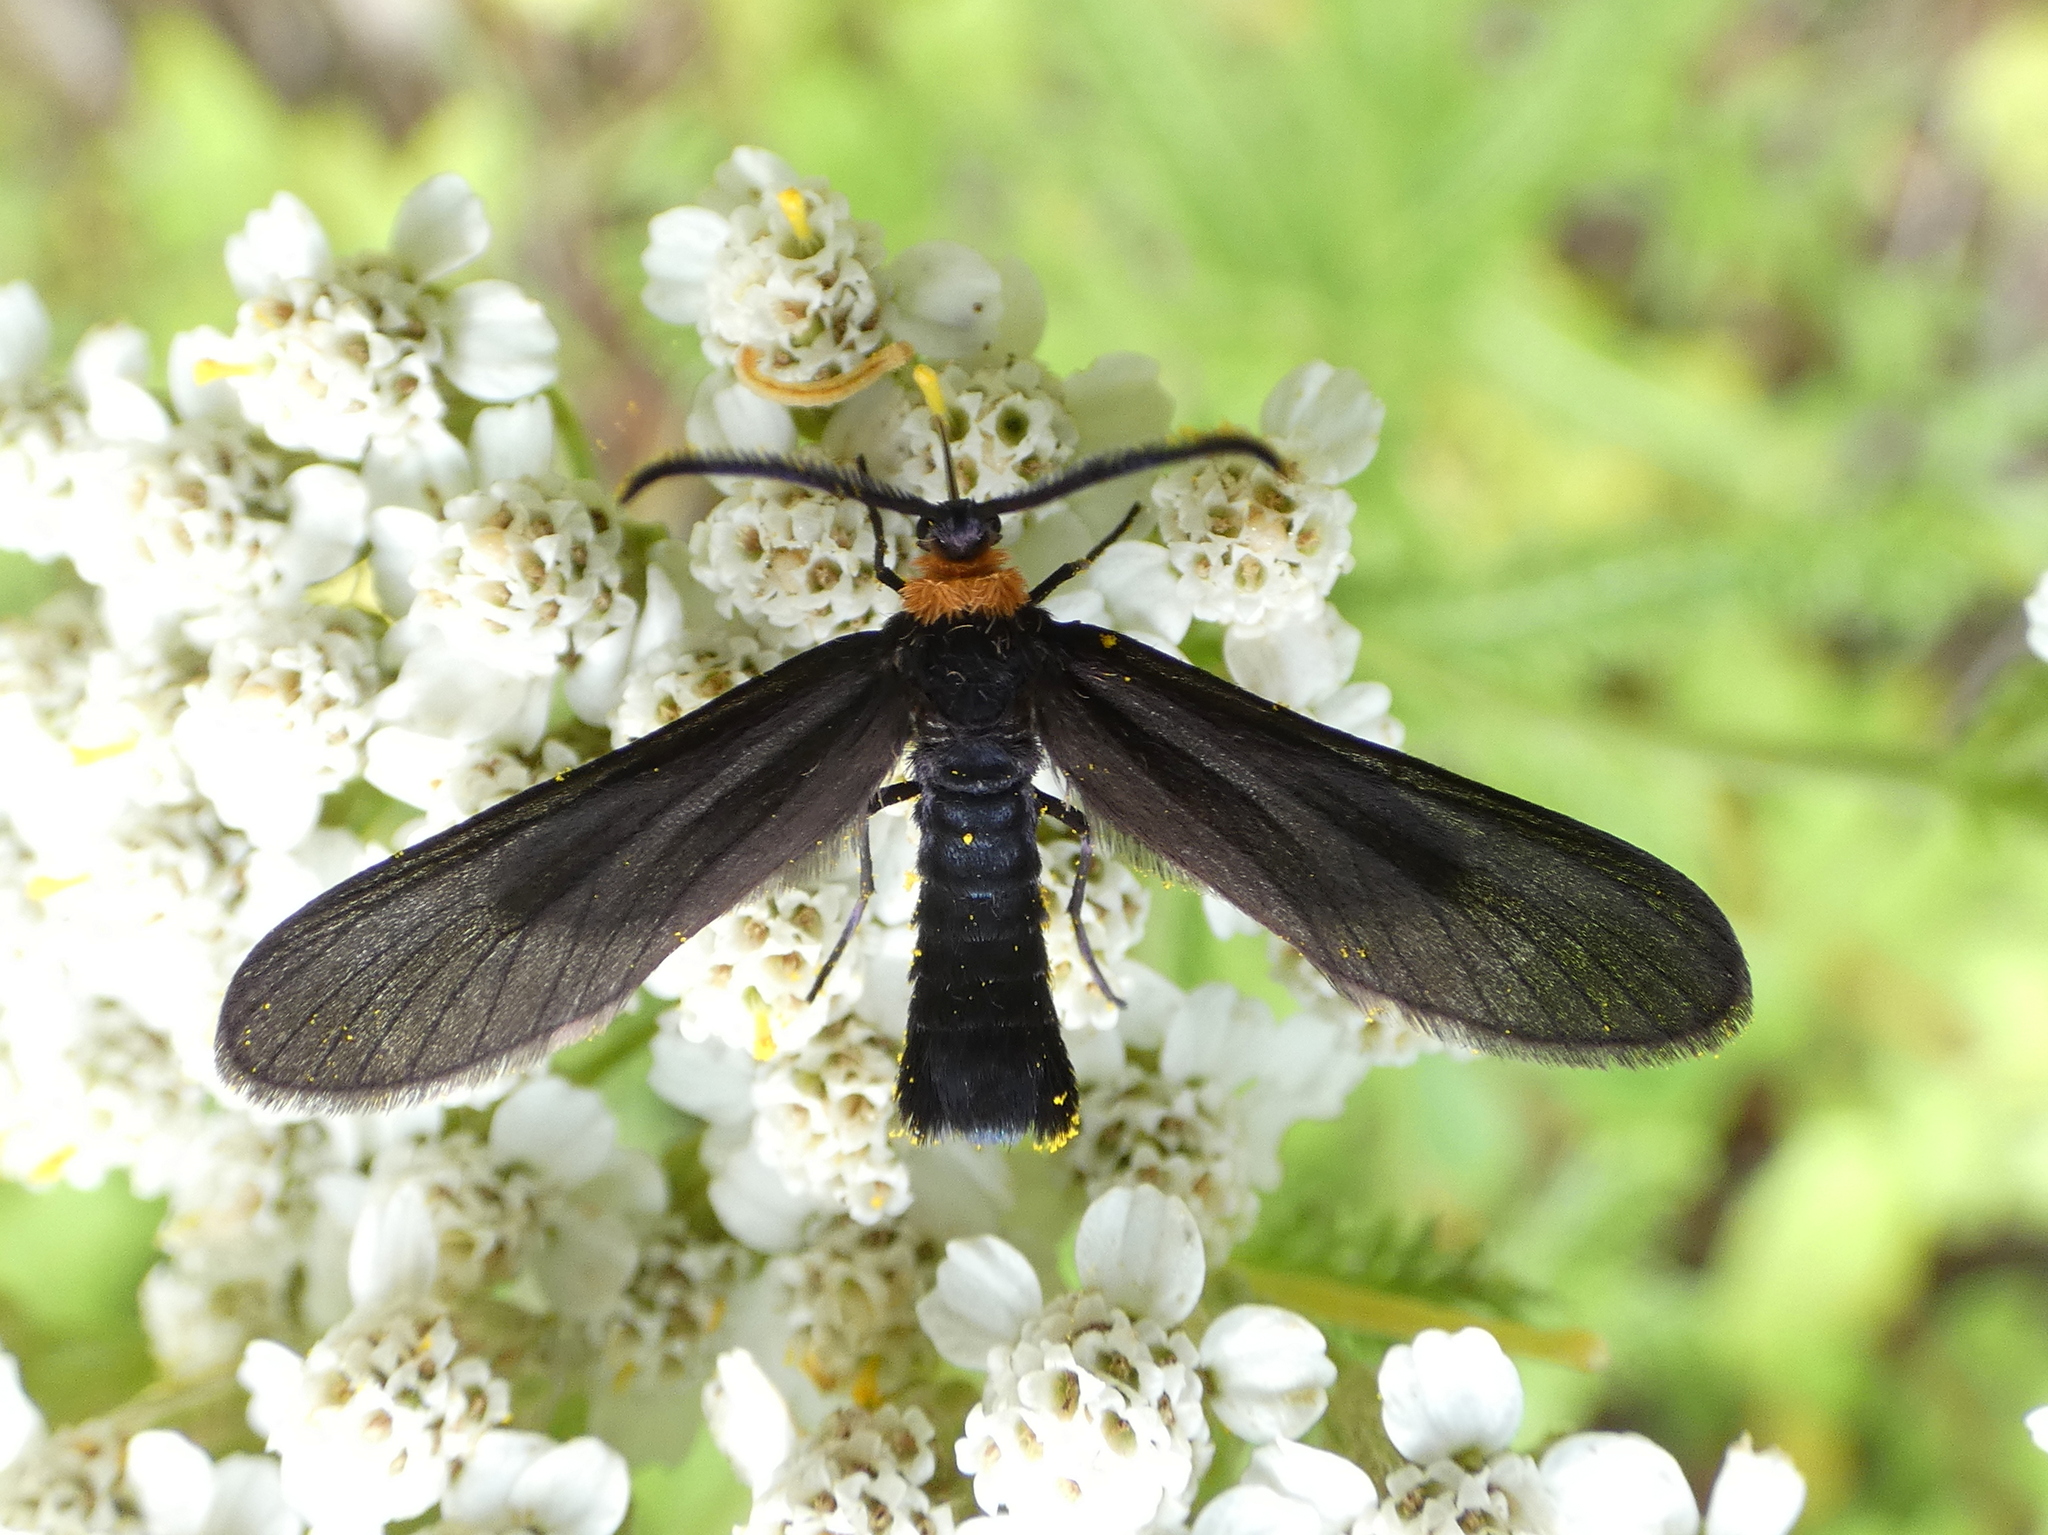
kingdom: Animalia
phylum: Arthropoda
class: Insecta
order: Lepidoptera
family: Zygaenidae
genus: Harrisina
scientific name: Harrisina americana
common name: Grapeleaf skeletonizer moth
